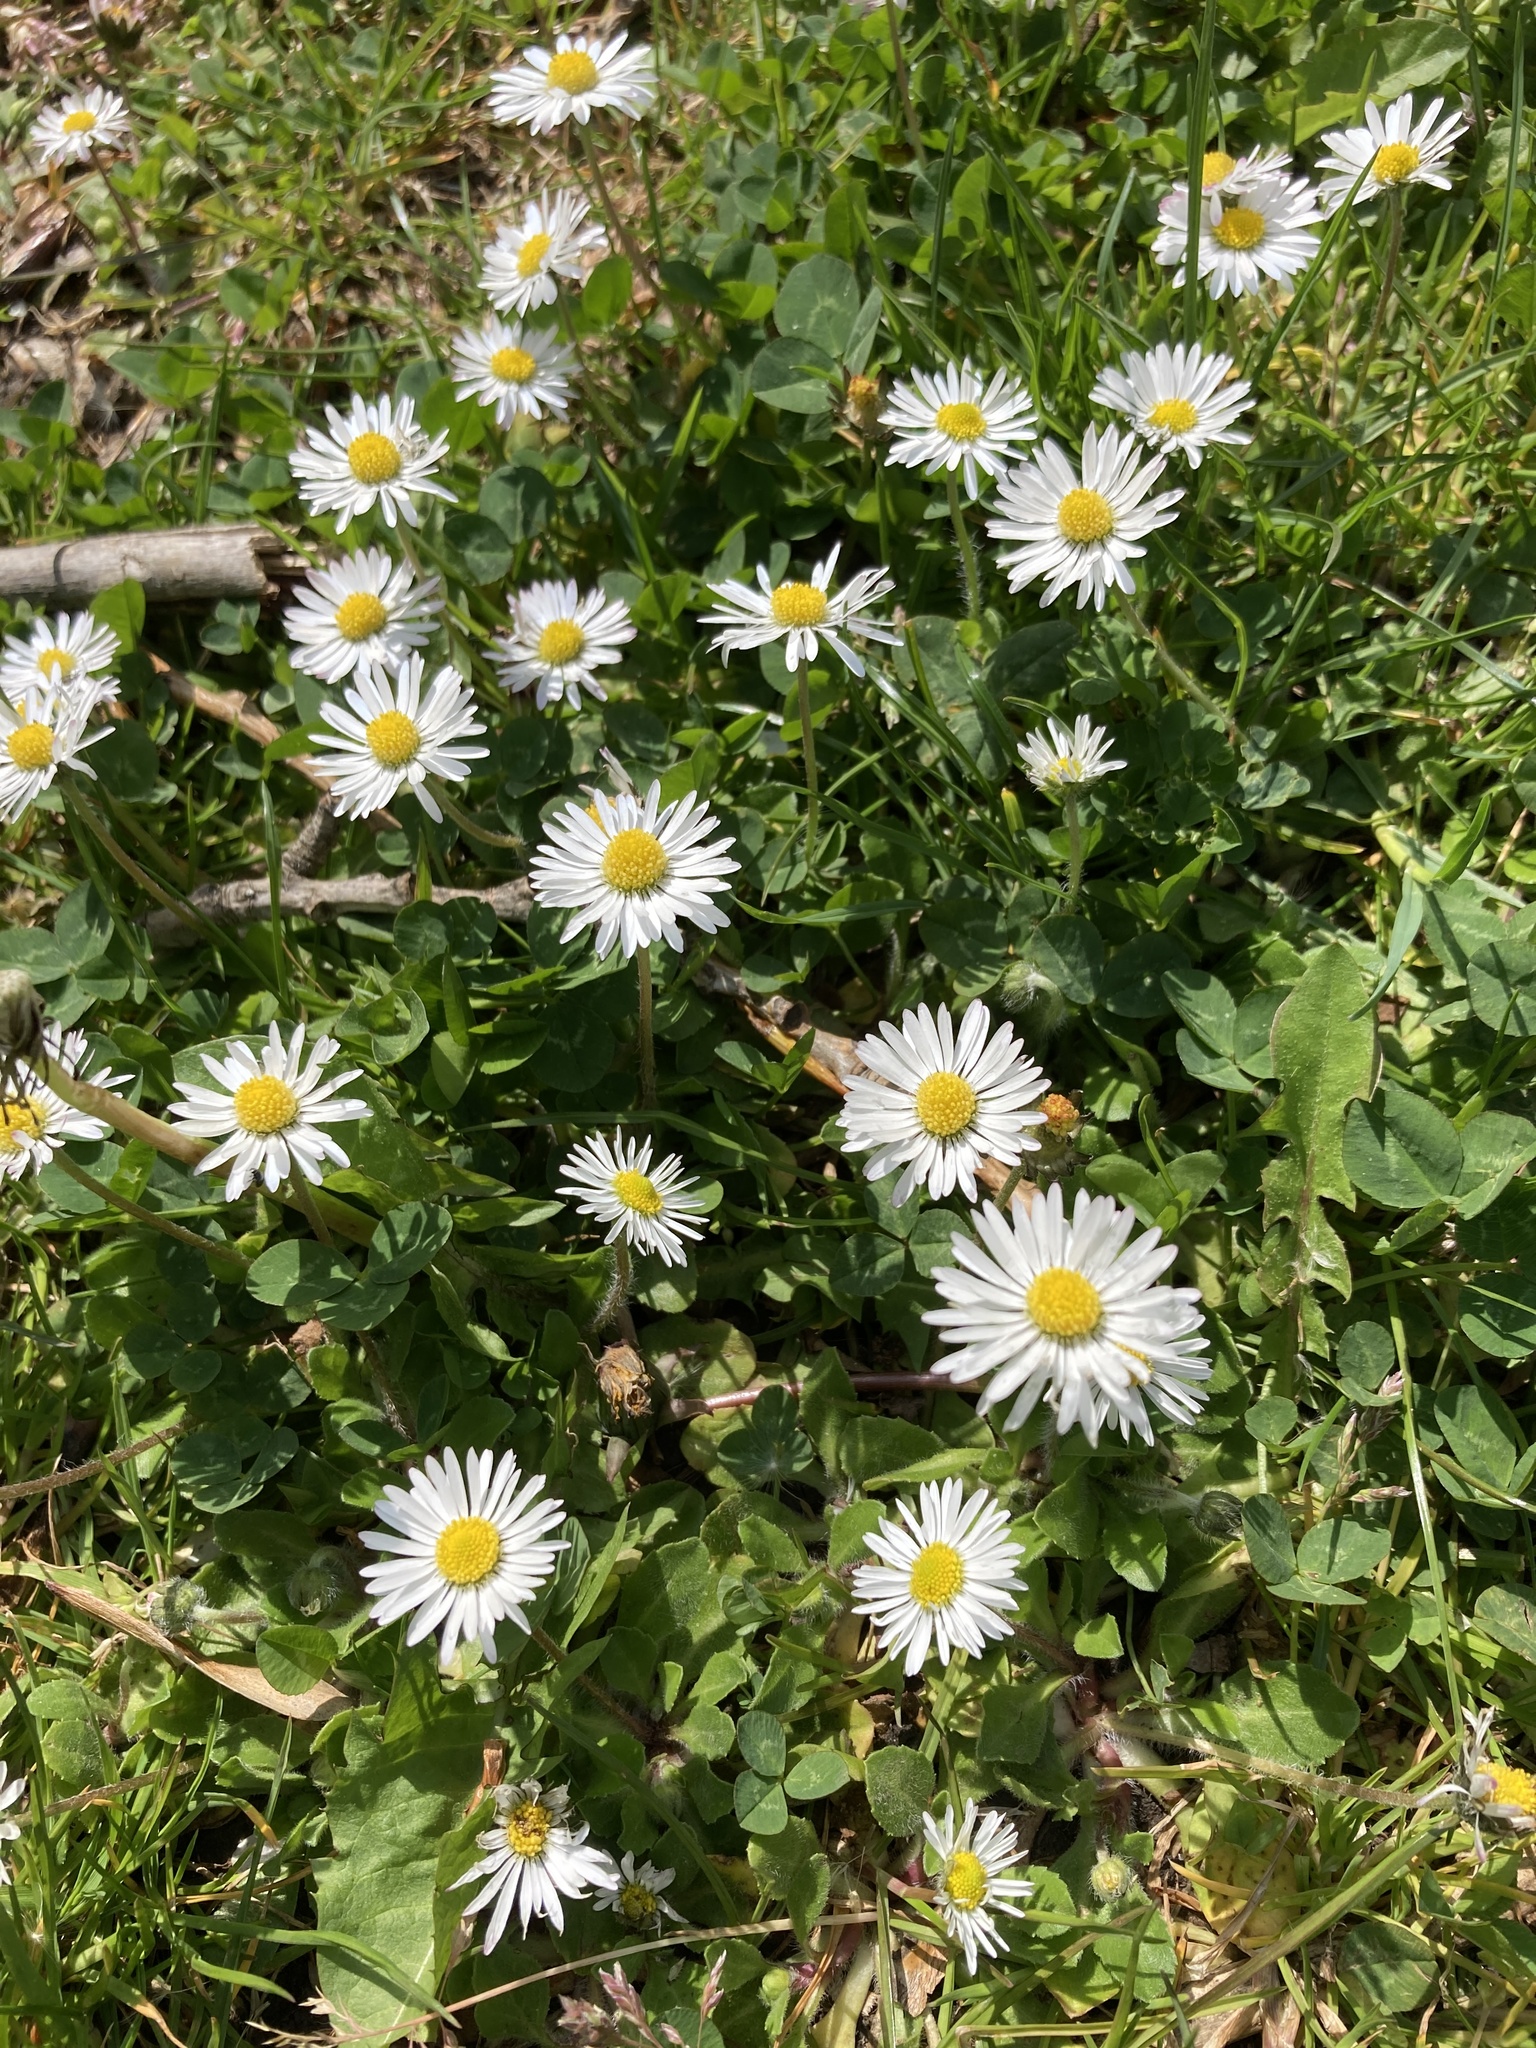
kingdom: Plantae
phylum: Tracheophyta
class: Magnoliopsida
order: Asterales
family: Asteraceae
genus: Bellis
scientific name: Bellis perennis
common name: Lawndaisy
